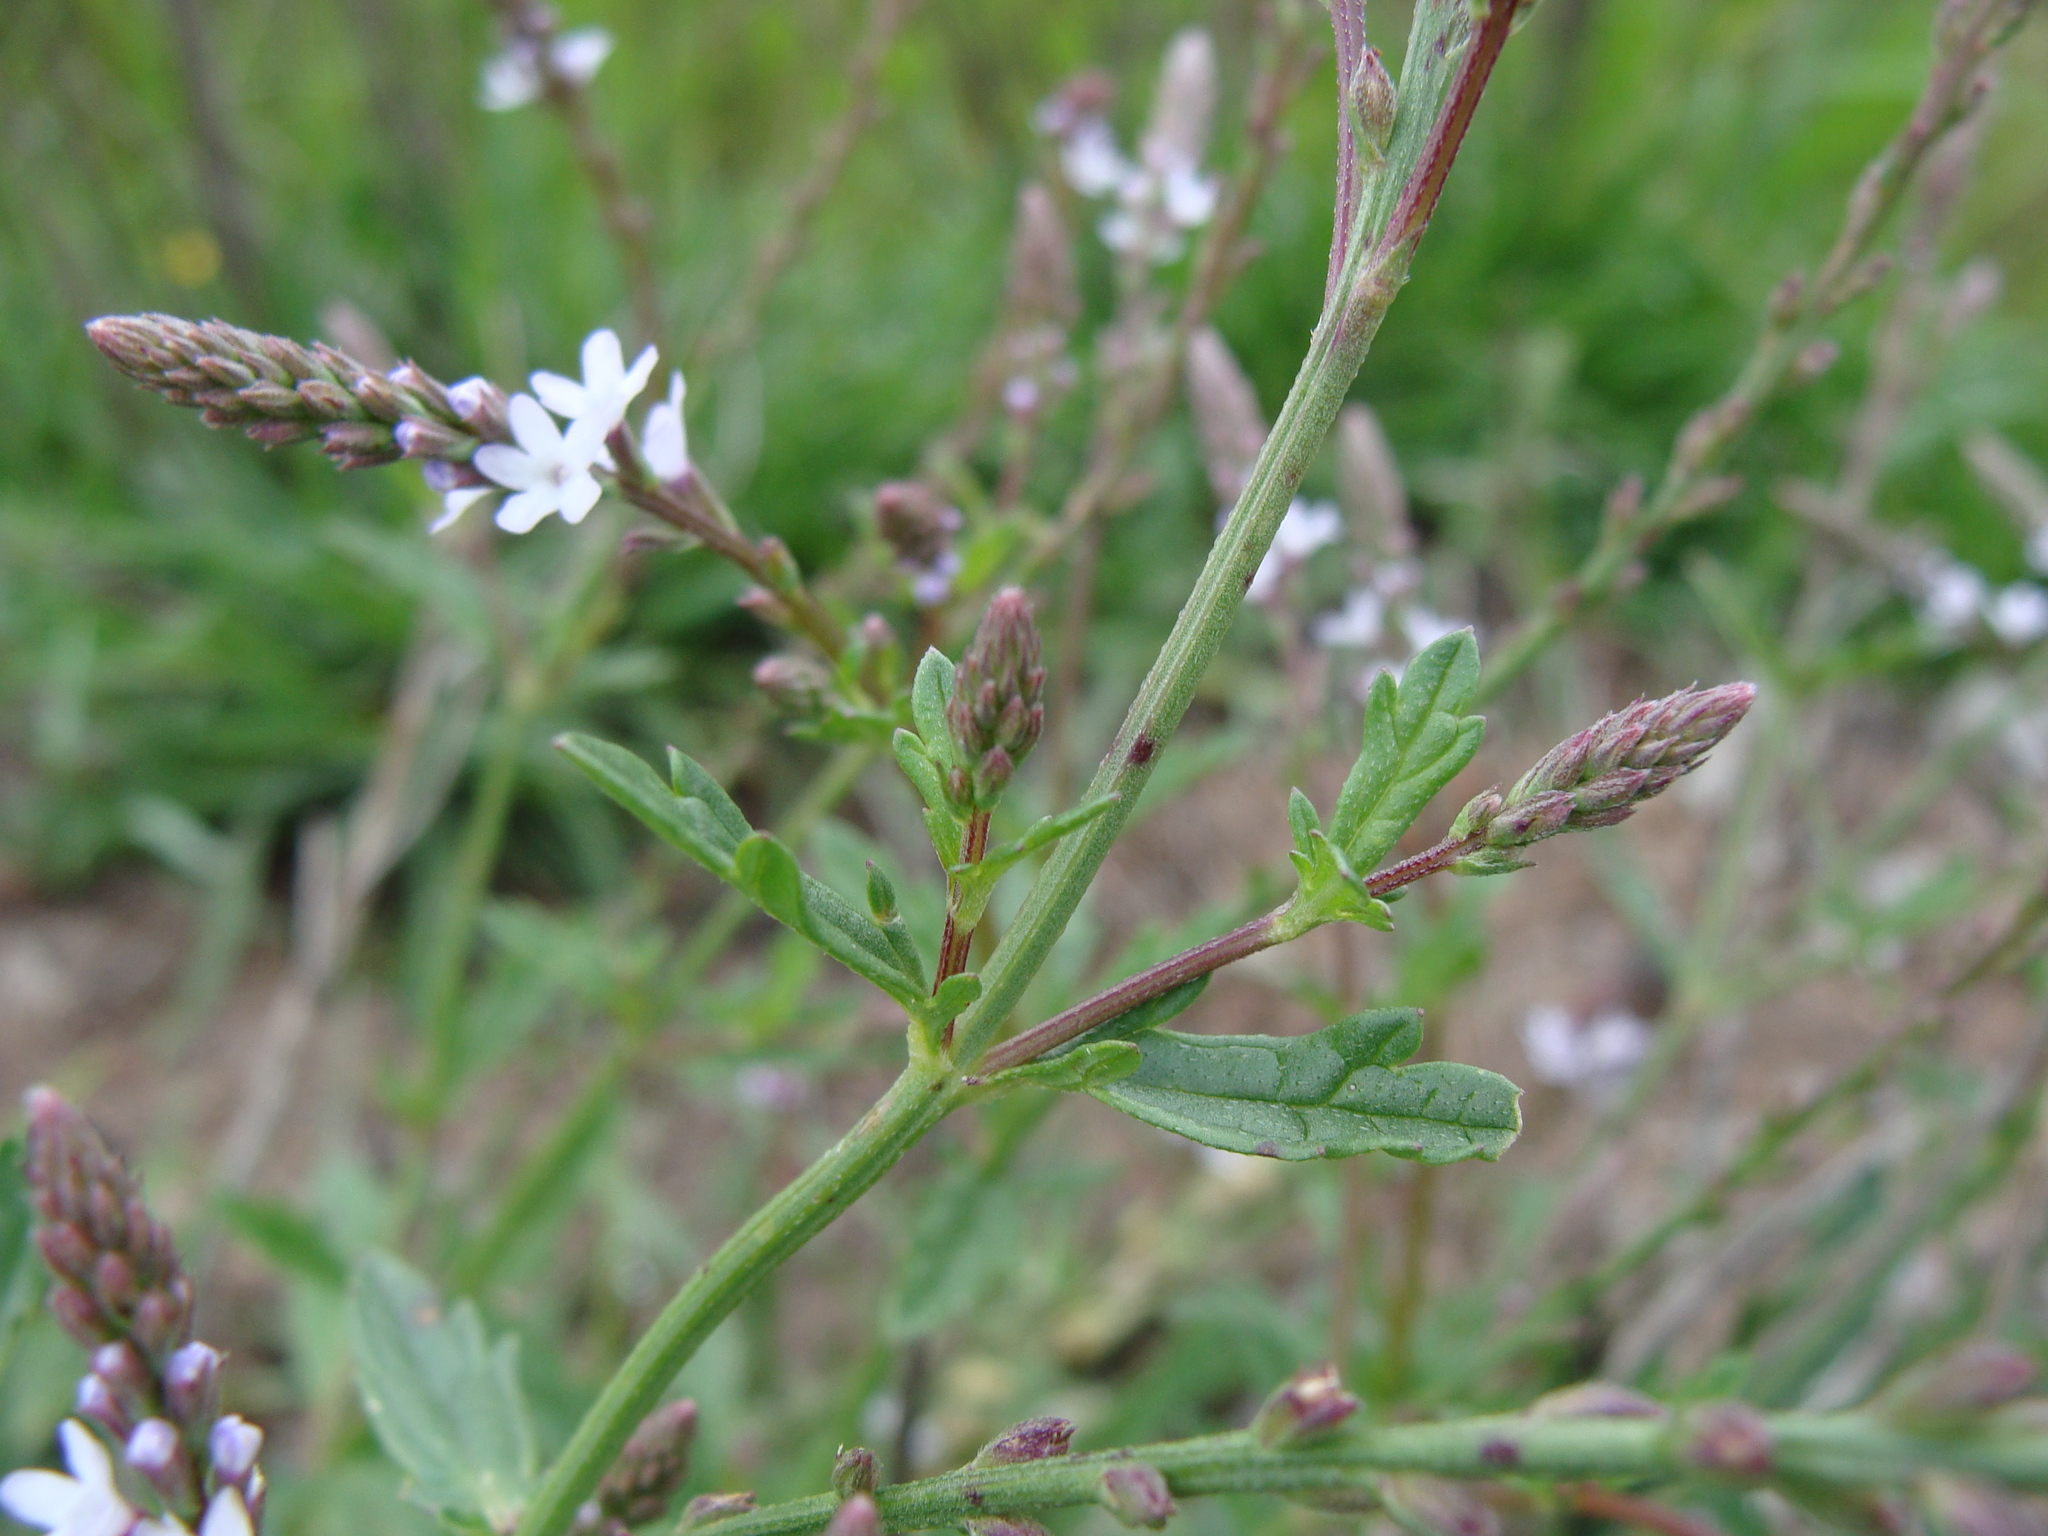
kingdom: Plantae
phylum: Tracheophyta
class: Magnoliopsida
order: Lamiales
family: Verbenaceae
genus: Verbena
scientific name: Verbena carolina
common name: Carolina vervain
